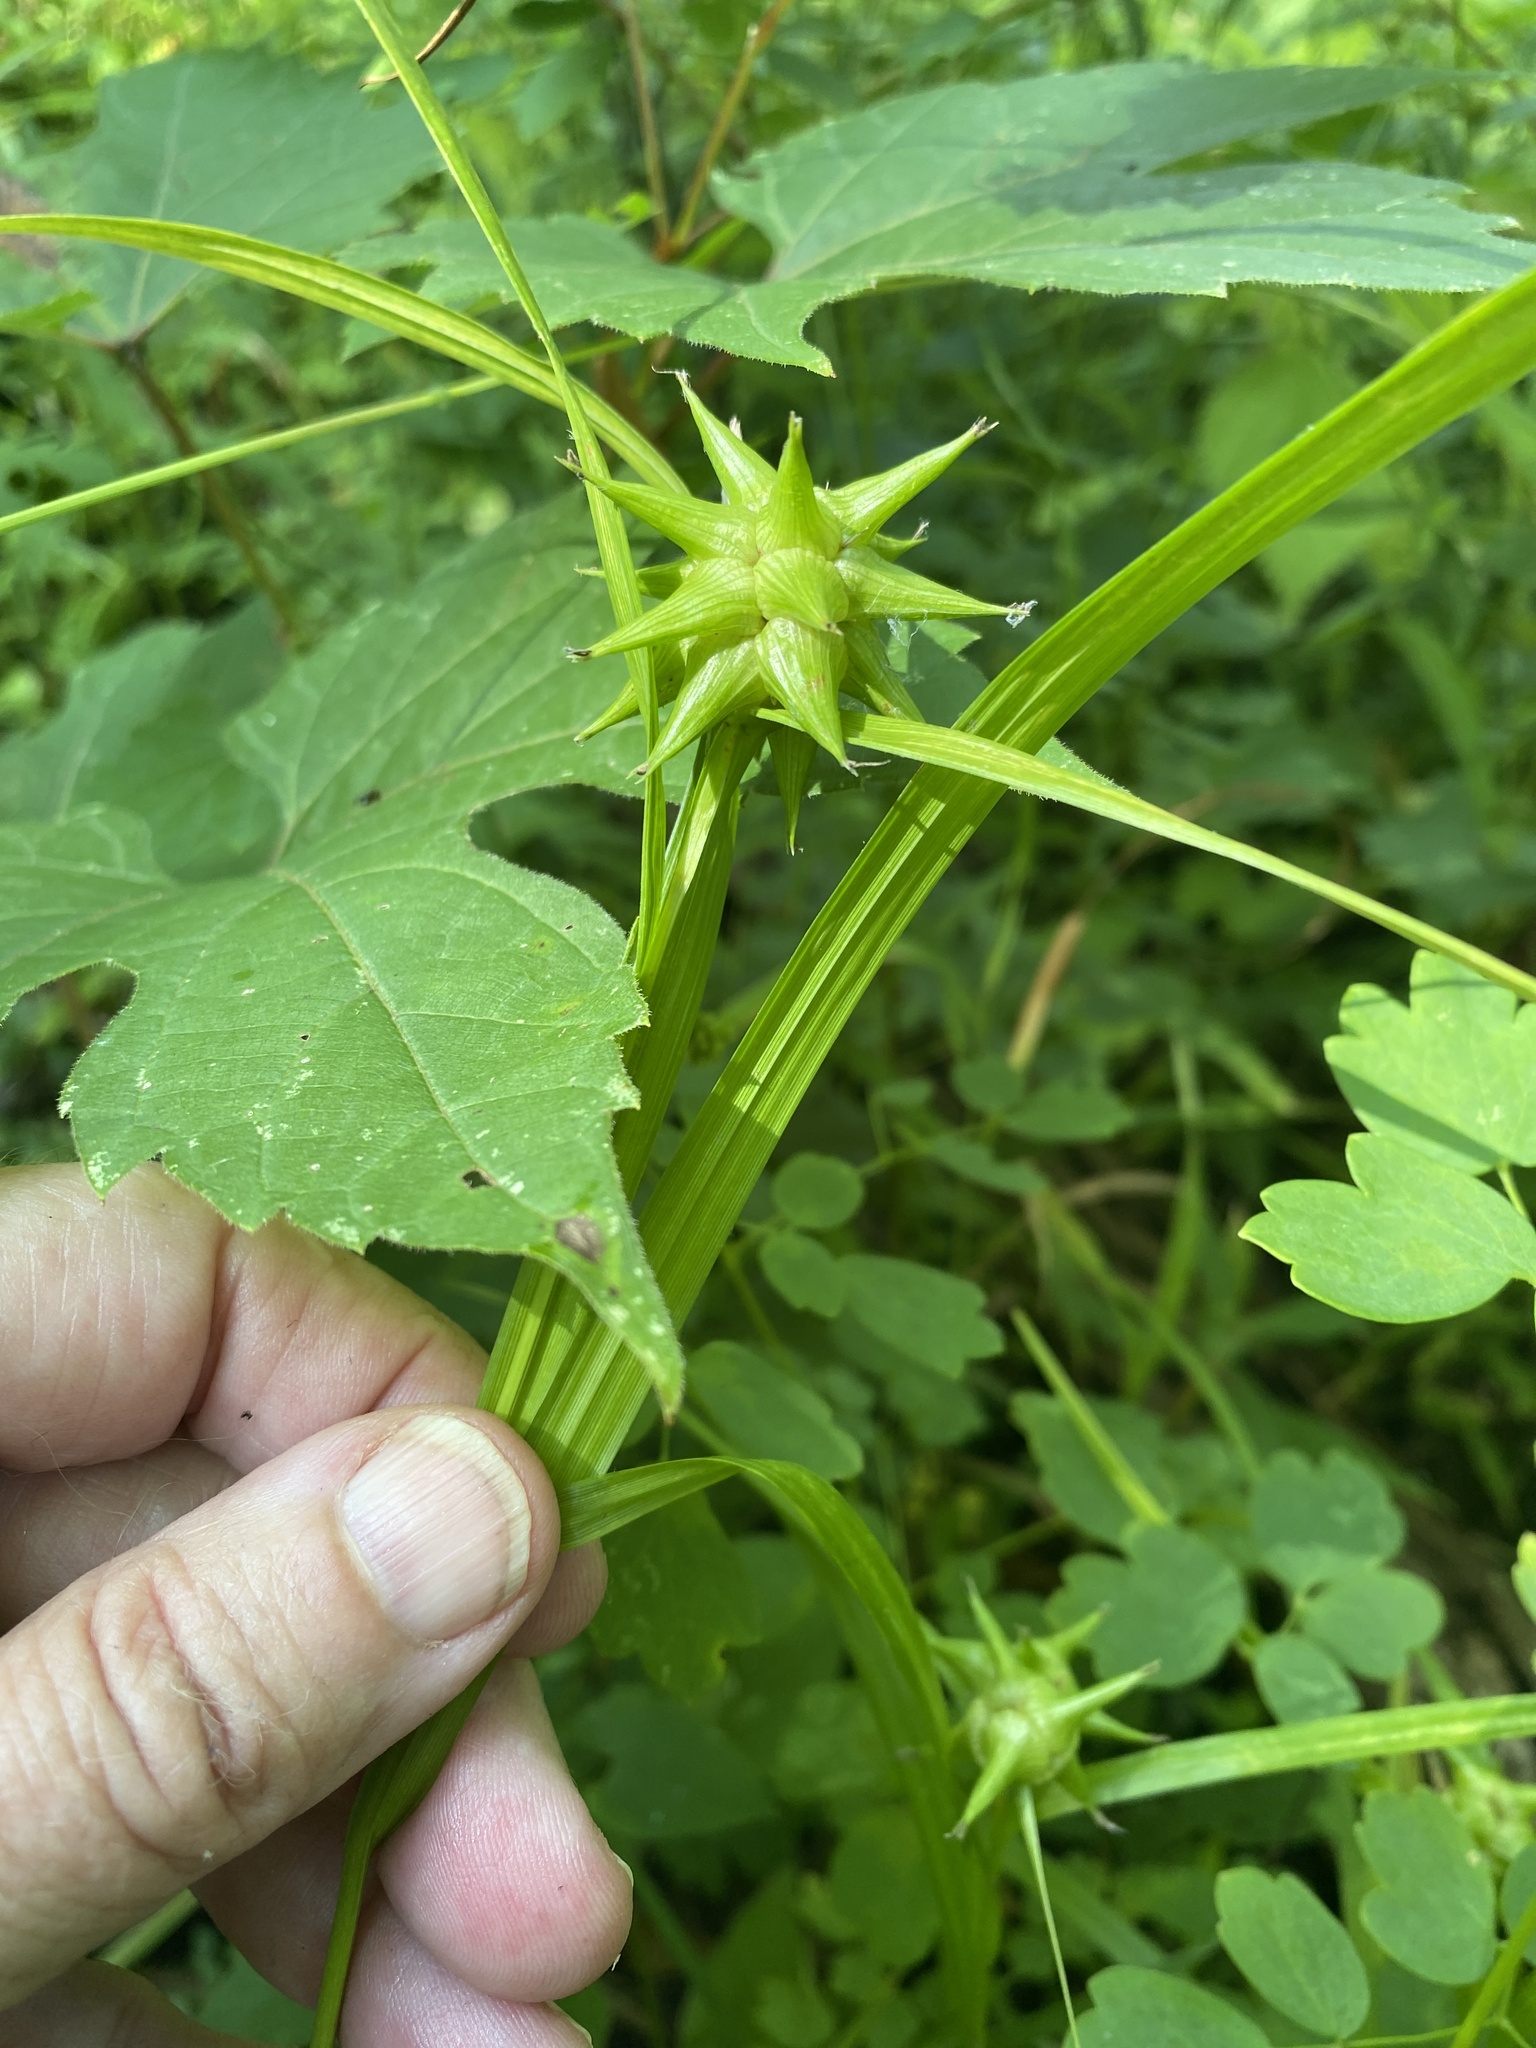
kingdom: Plantae
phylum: Tracheophyta
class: Liliopsida
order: Poales
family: Cyperaceae
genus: Carex
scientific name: Carex grayi
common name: Asa gray's sedge
